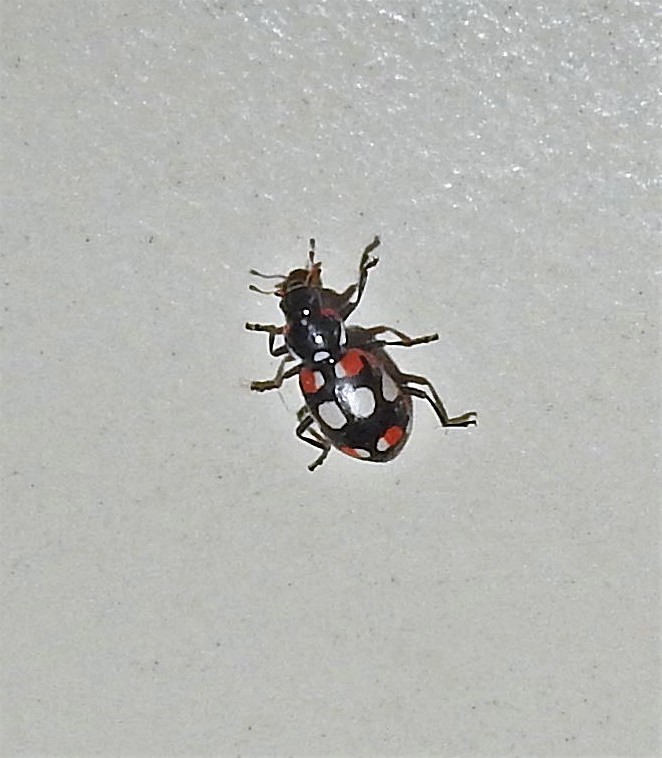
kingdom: Animalia
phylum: Arthropoda
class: Insecta
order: Coleoptera
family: Coccinellidae
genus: Eriopis
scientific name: Eriopis connexa
